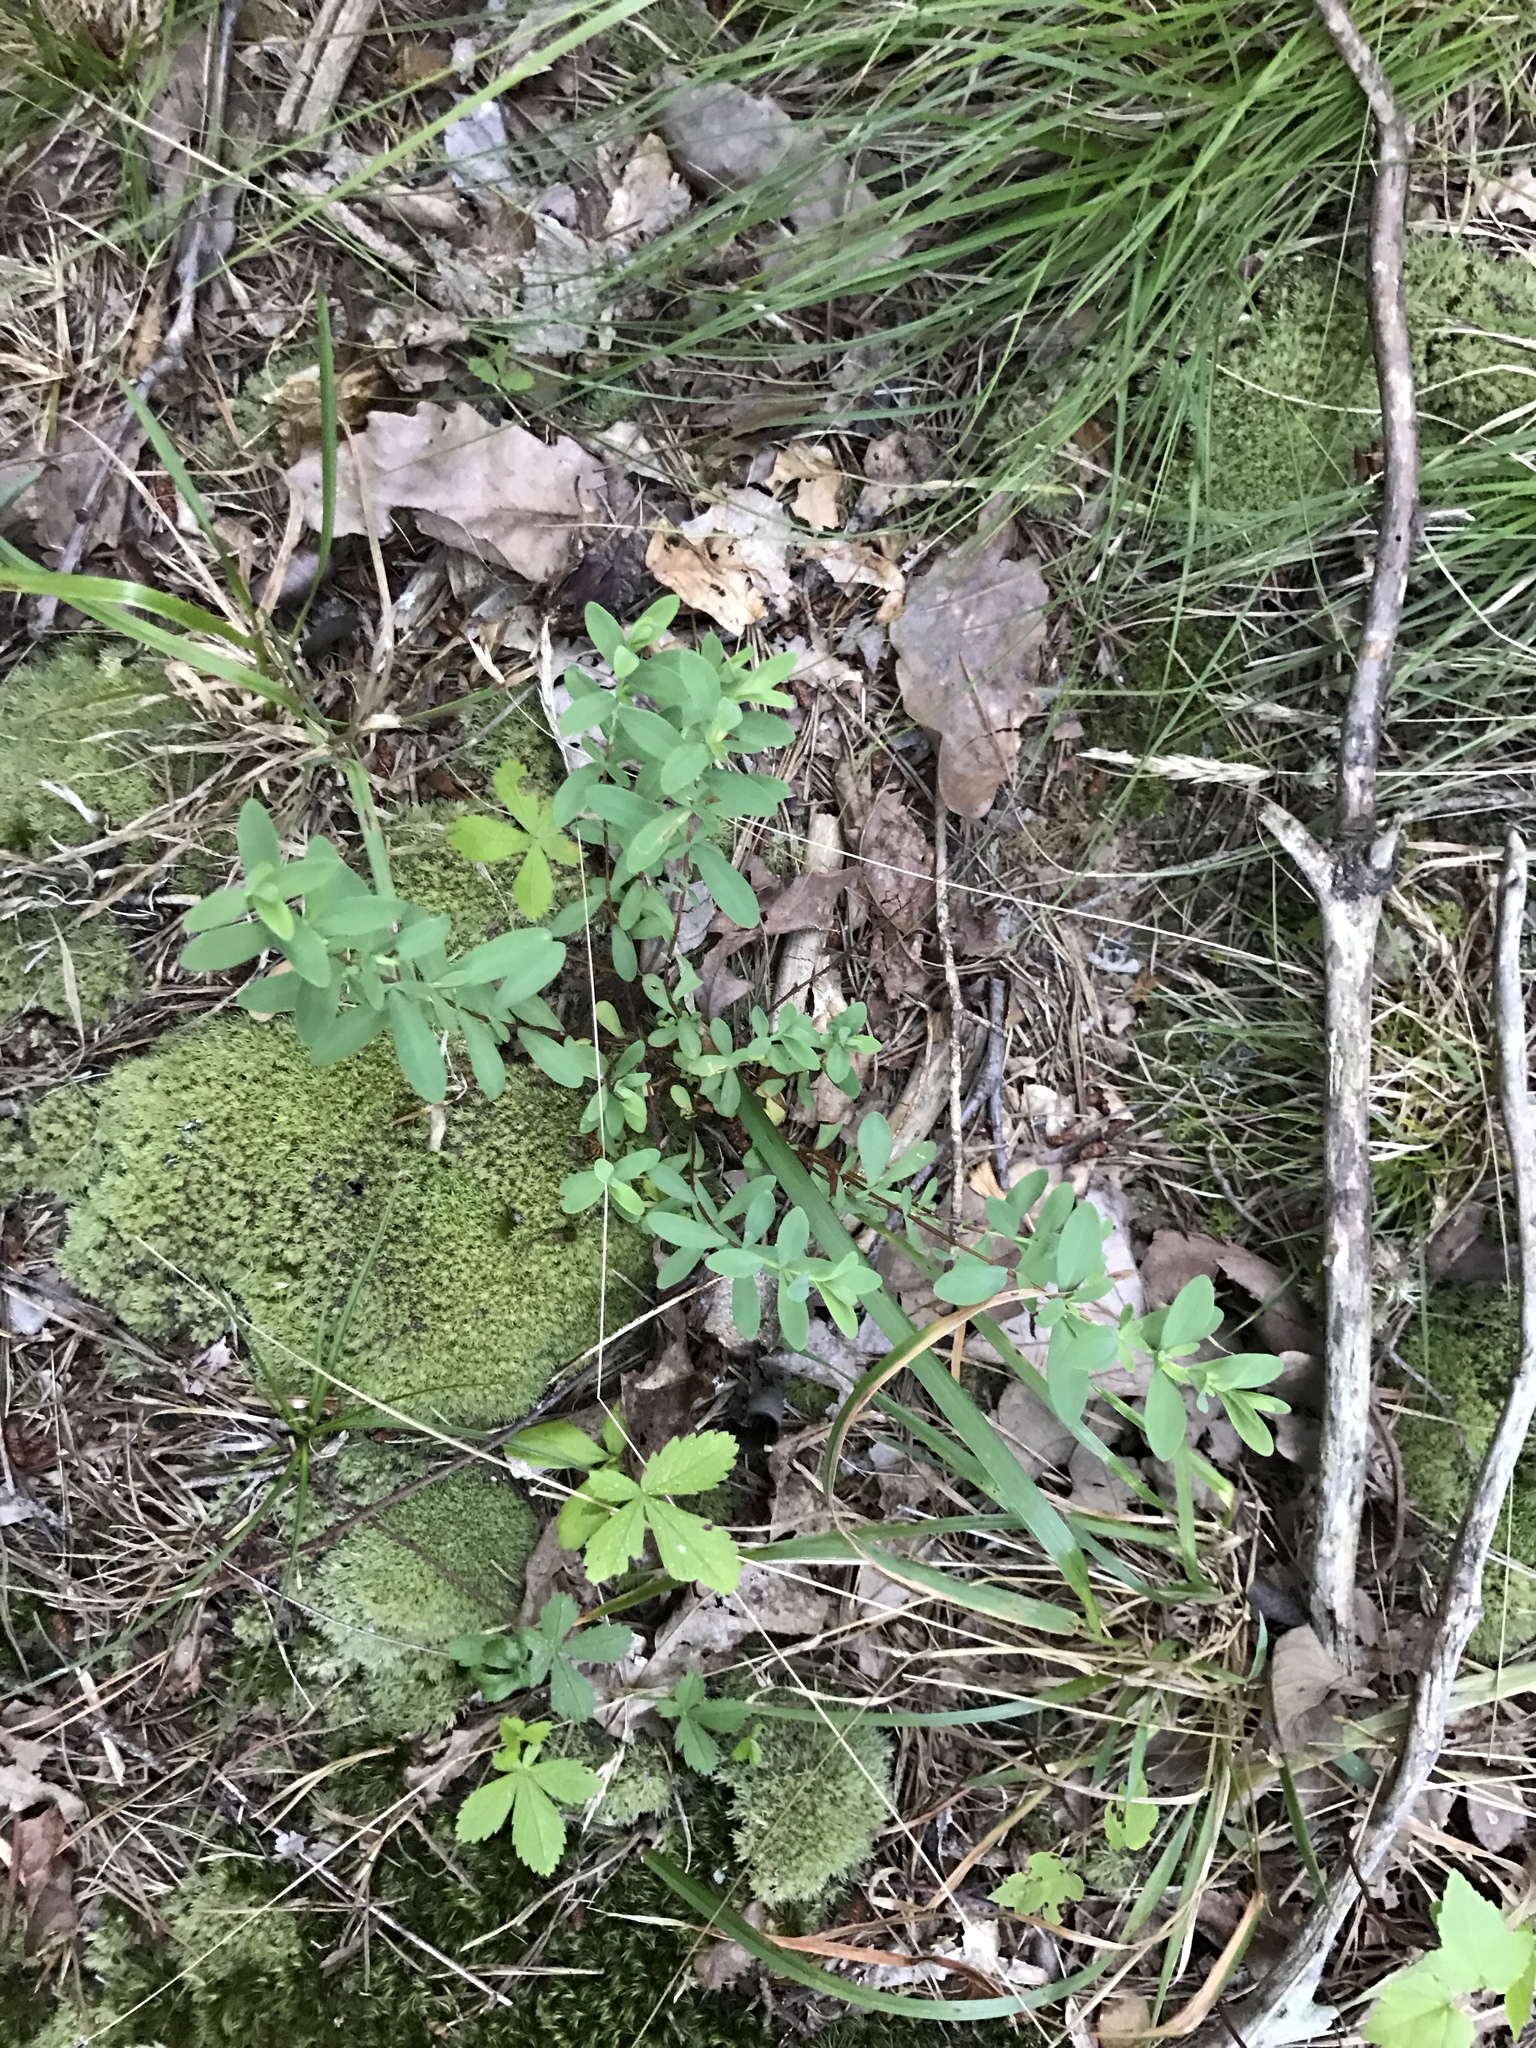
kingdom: Plantae
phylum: Tracheophyta
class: Magnoliopsida
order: Malpighiales
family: Hypericaceae
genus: Hypericum
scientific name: Hypericum hypericoides
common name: St. andrew's cross
